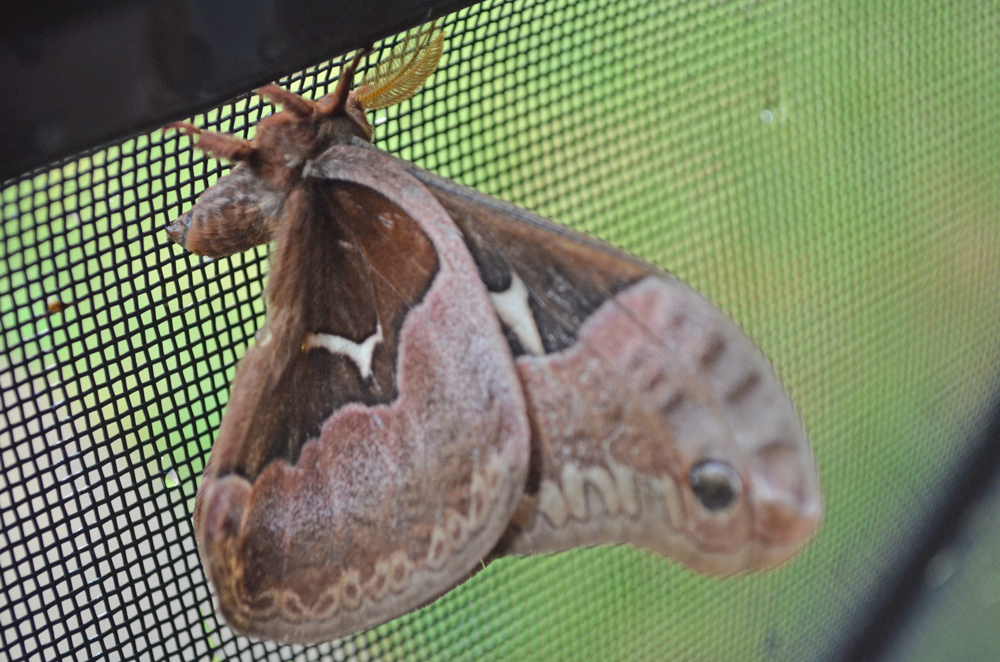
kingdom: Animalia
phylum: Arthropoda
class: Insecta
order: Lepidoptera
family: Saturniidae
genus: Callosamia
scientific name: Callosamia angulifera
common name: Tulip tree silkmoth
